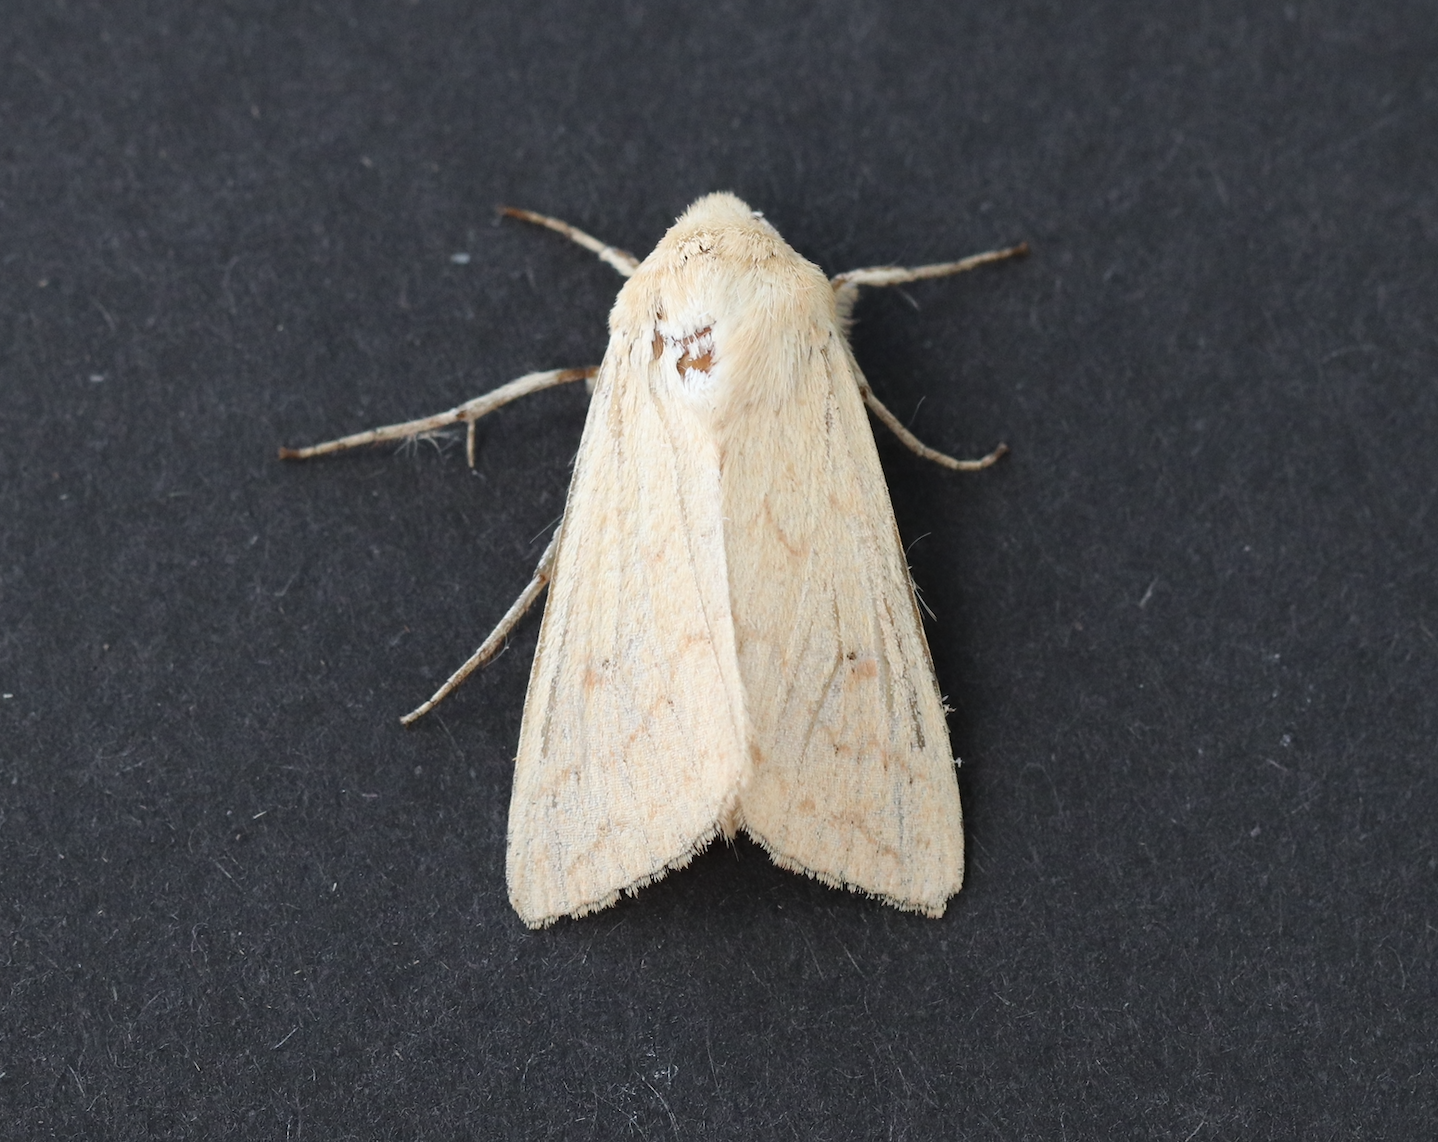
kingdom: Animalia
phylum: Arthropoda
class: Insecta
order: Lepidoptera
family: Noctuidae
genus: Mythimna
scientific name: Mythimna vitellina
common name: Delicate
